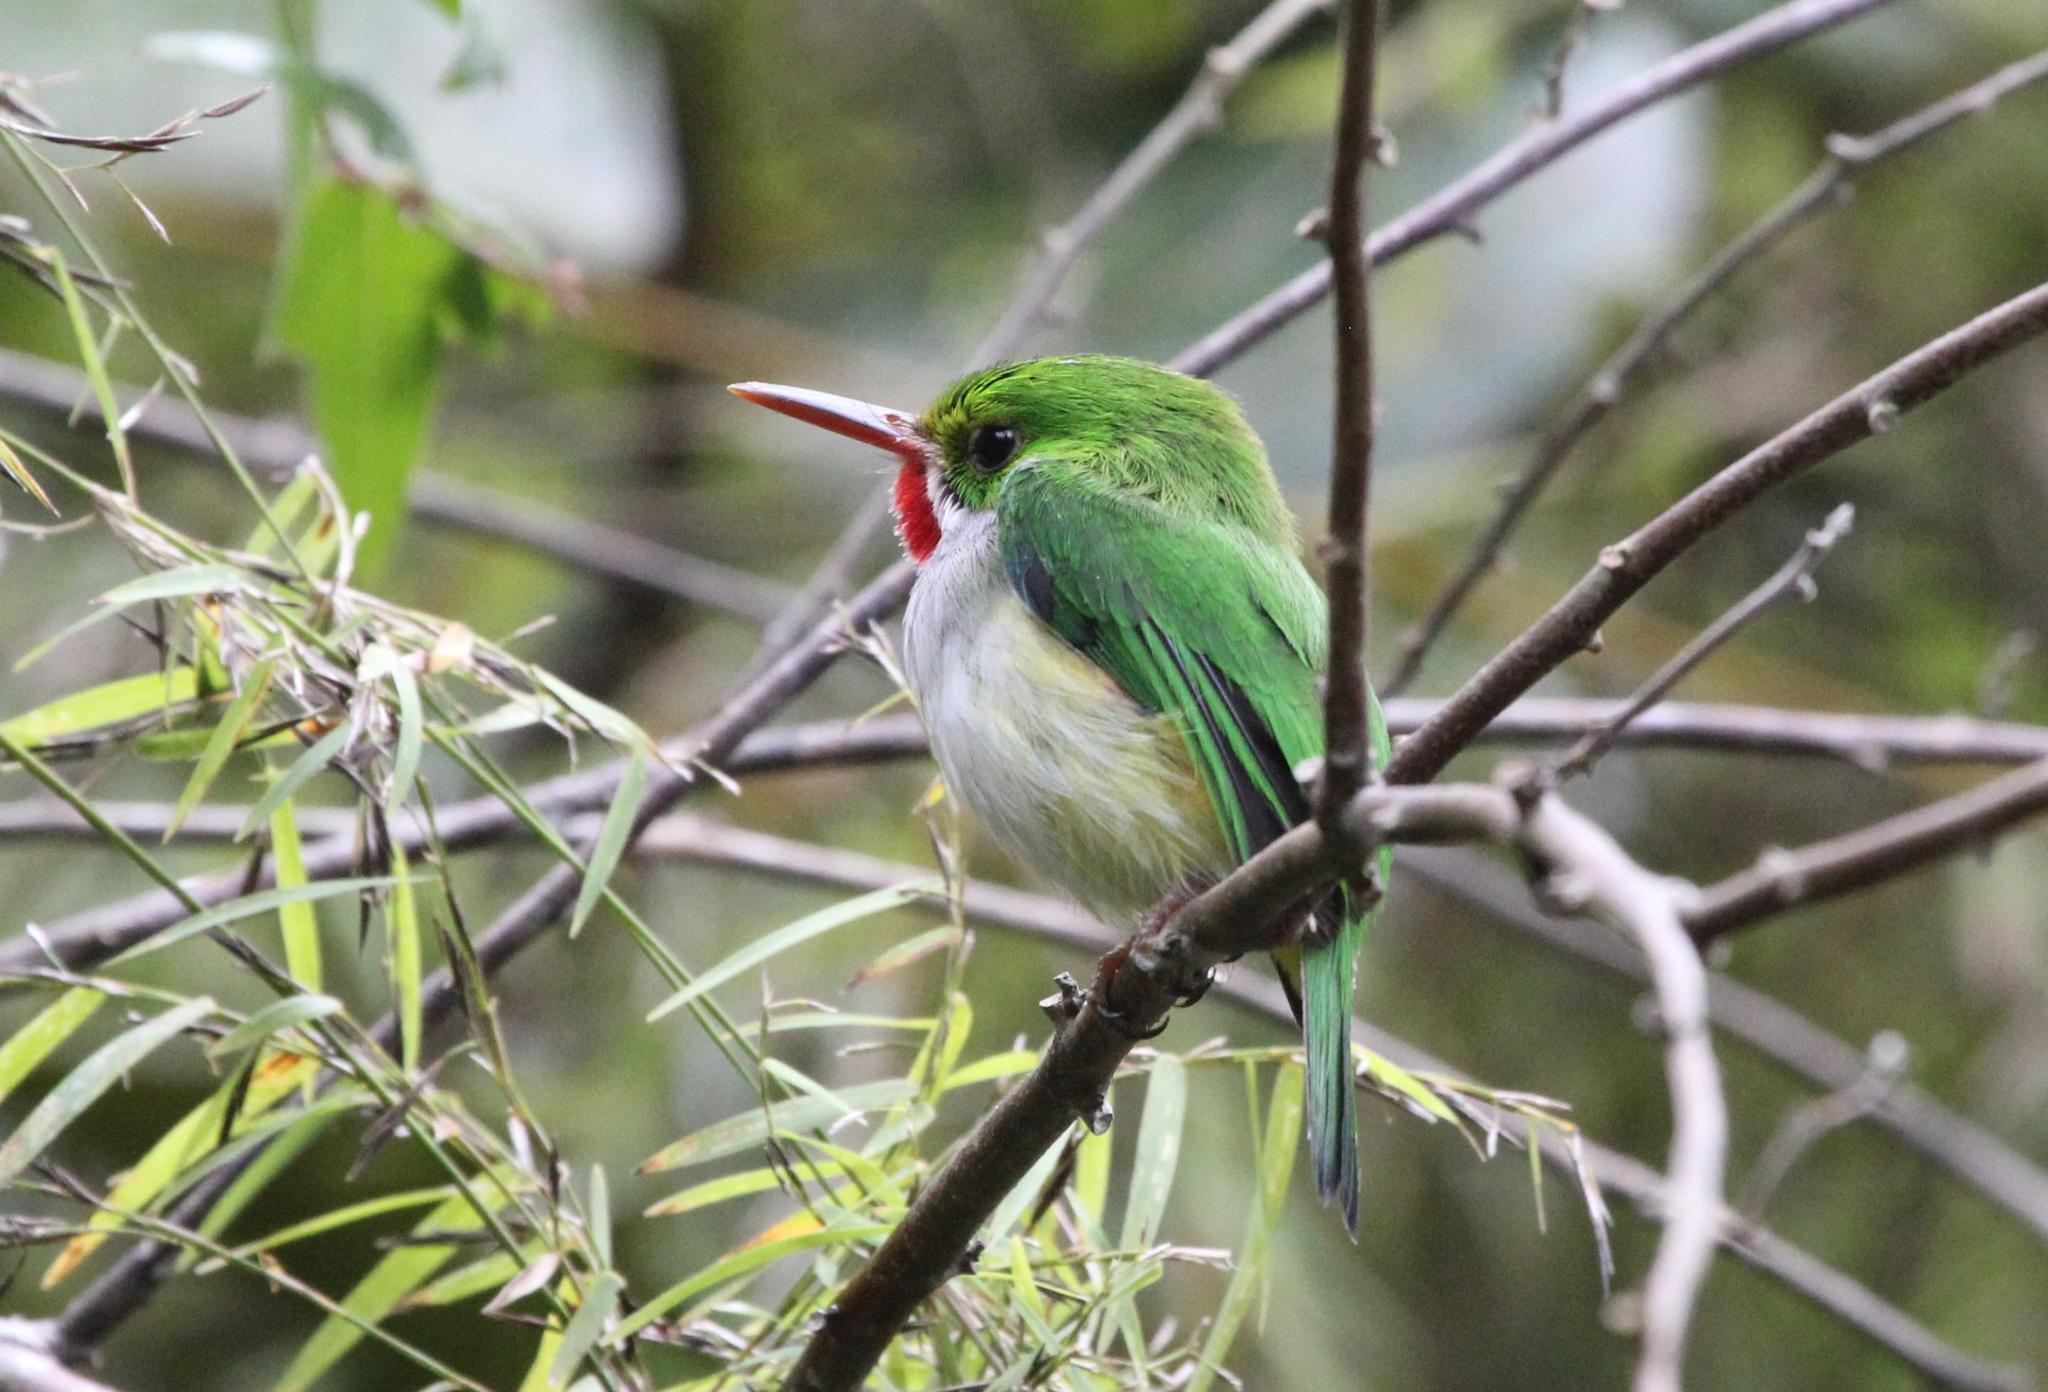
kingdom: Animalia
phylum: Chordata
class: Aves
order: Coraciiformes
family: Todidae
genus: Todus
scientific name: Todus mexicanus
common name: Puerto rican tody
